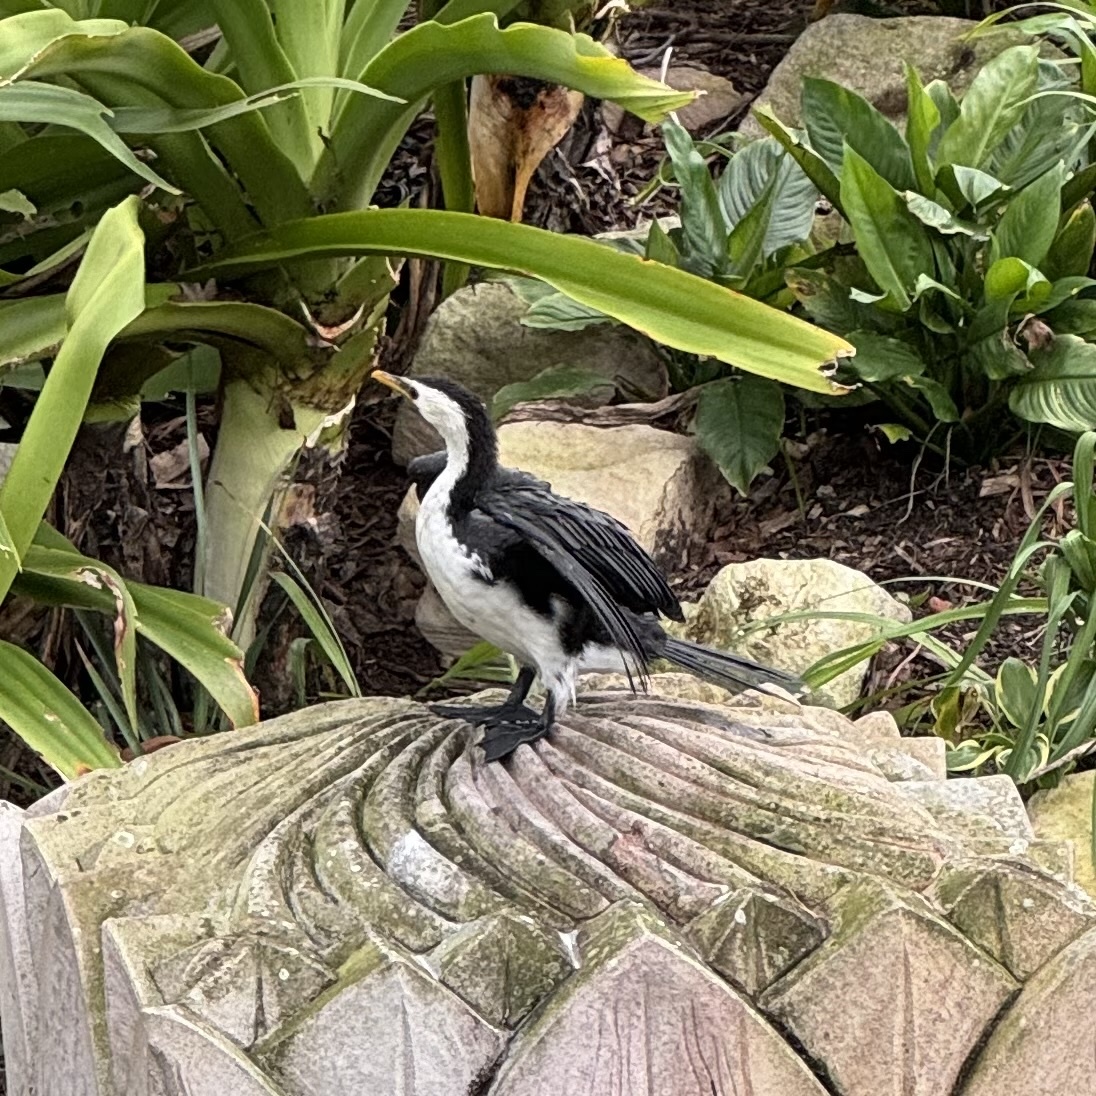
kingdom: Animalia
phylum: Chordata
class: Aves
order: Suliformes
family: Phalacrocoracidae
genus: Microcarbo
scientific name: Microcarbo melanoleucos
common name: Little pied cormorant
